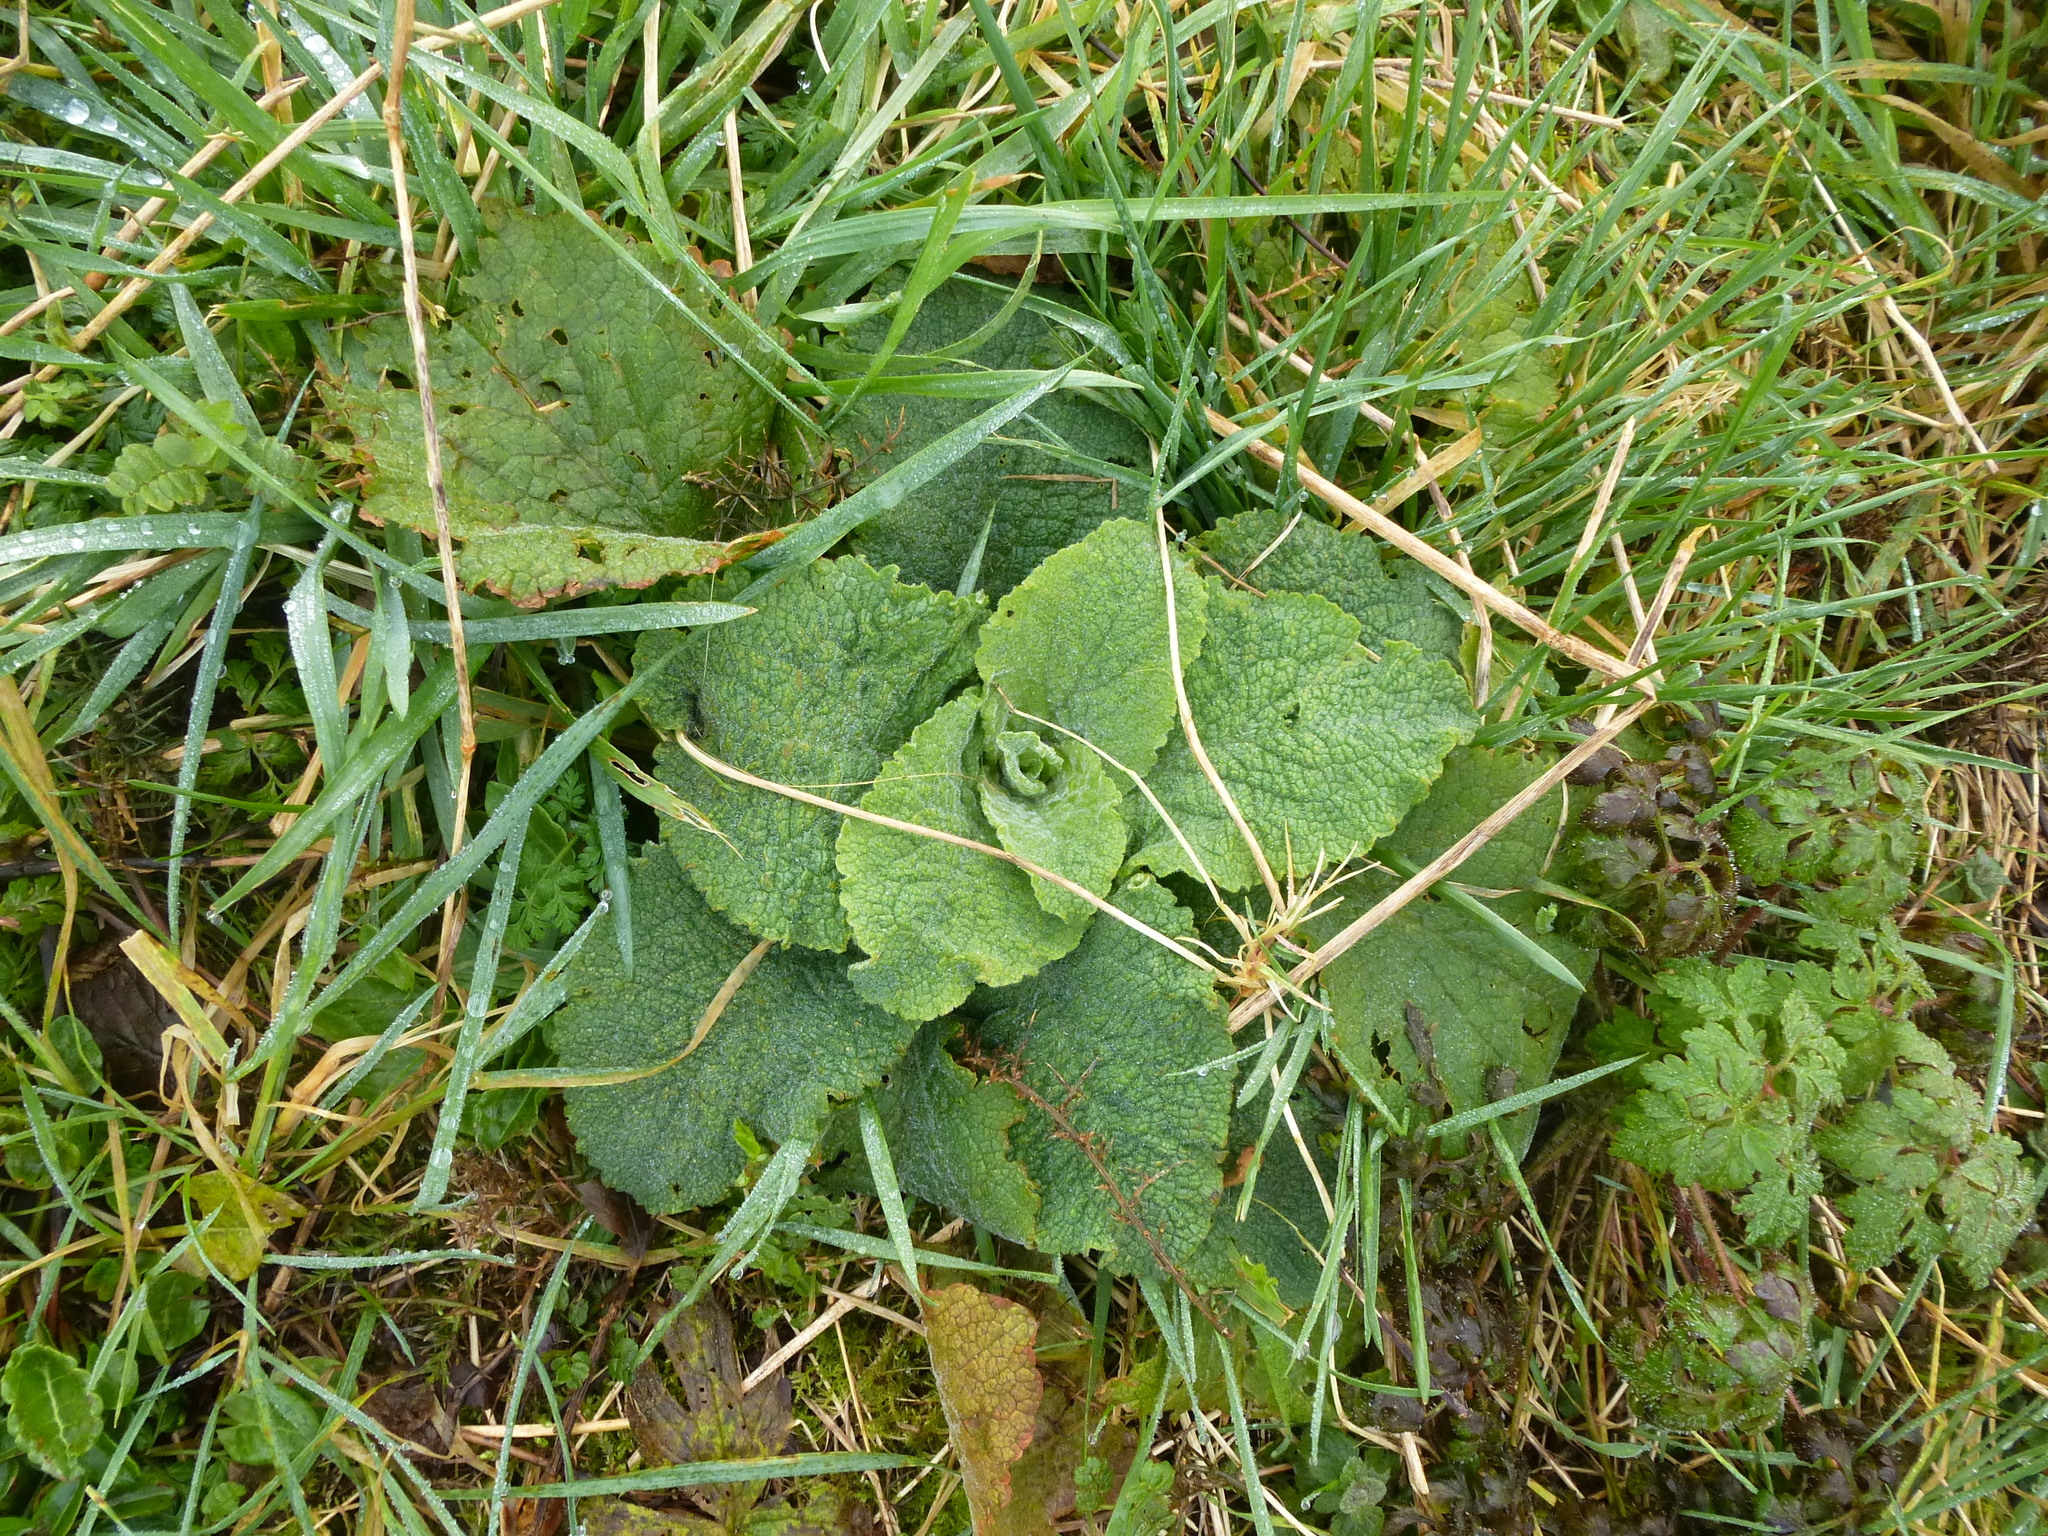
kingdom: Plantae
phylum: Tracheophyta
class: Magnoliopsida
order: Lamiales
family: Plantaginaceae
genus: Digitalis
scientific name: Digitalis purpurea
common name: Foxglove
